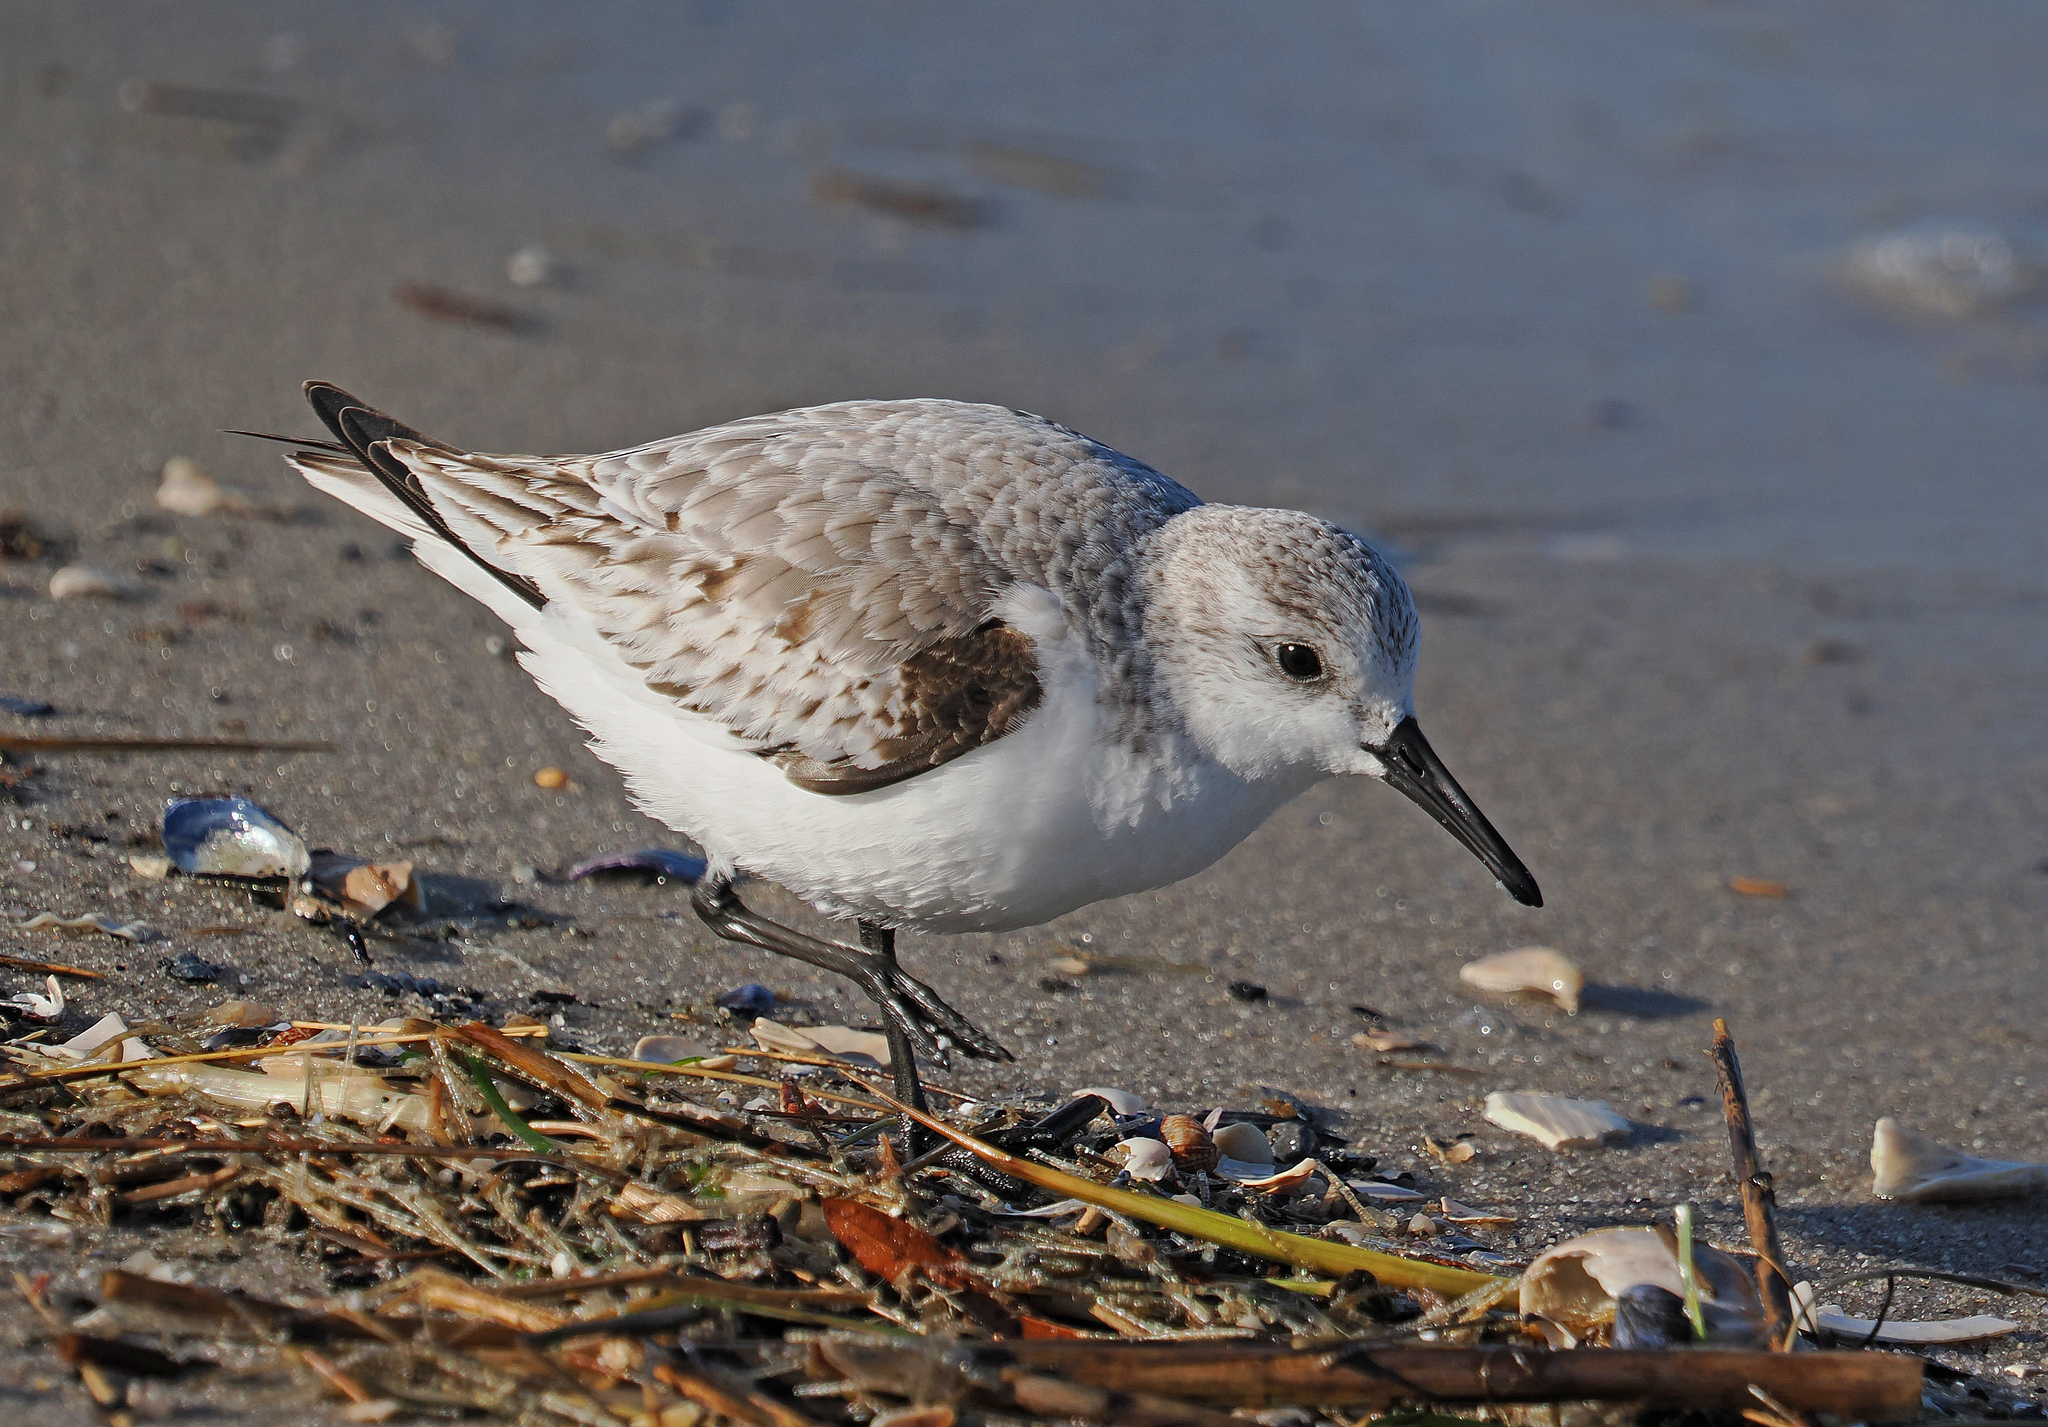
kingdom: Animalia
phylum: Chordata
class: Aves
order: Charadriiformes
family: Scolopacidae
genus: Calidris
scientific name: Calidris alba
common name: Sanderling
